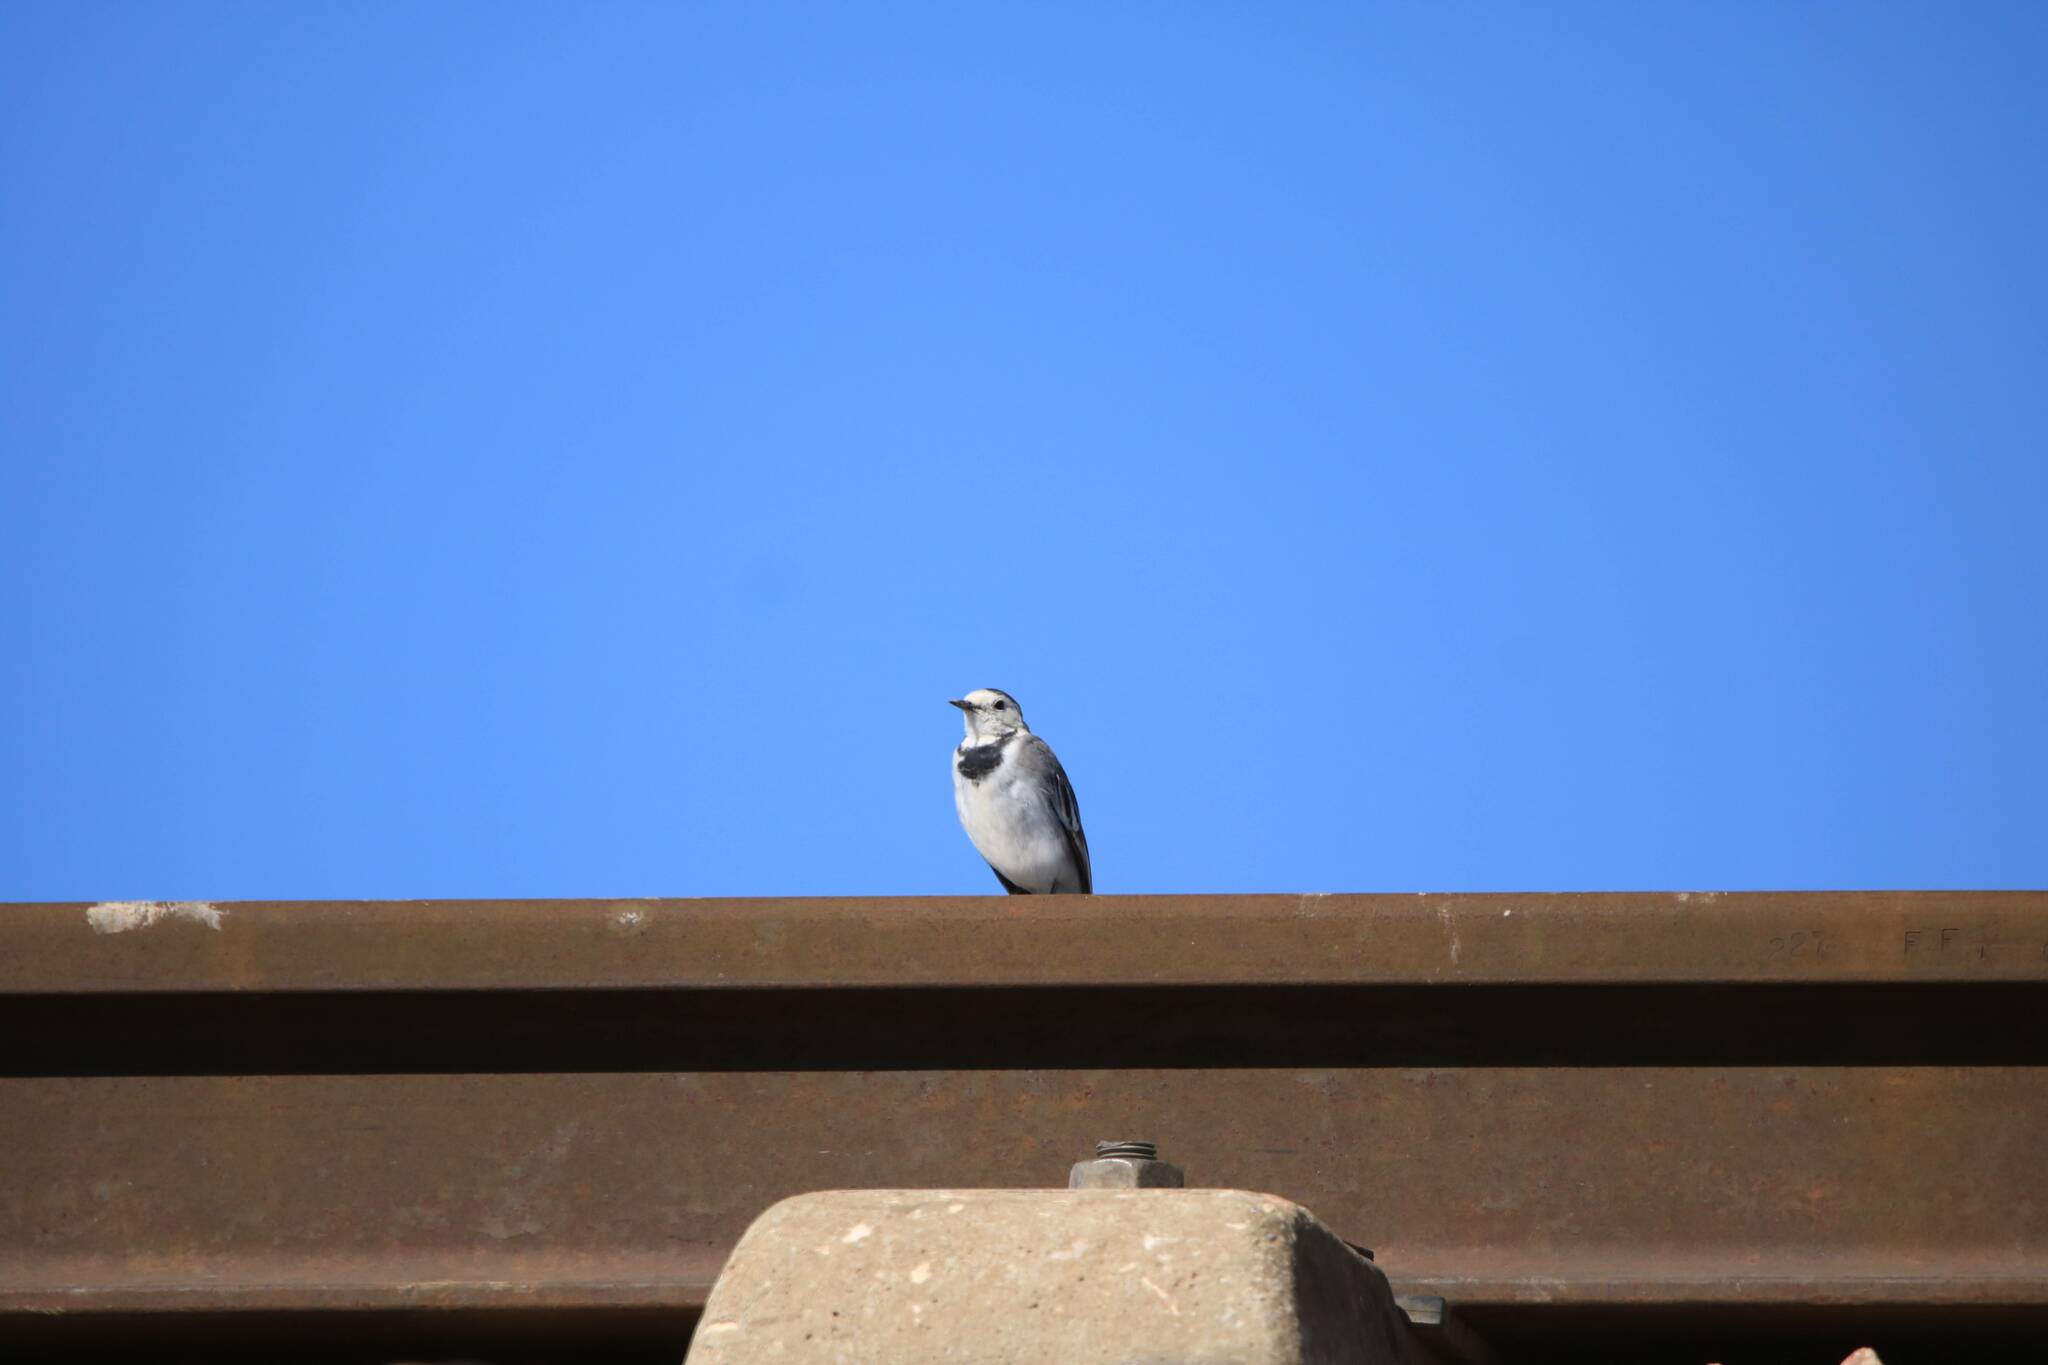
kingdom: Animalia
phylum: Chordata
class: Aves
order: Passeriformes
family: Motacillidae
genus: Motacilla
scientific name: Motacilla alba
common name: White wagtail
